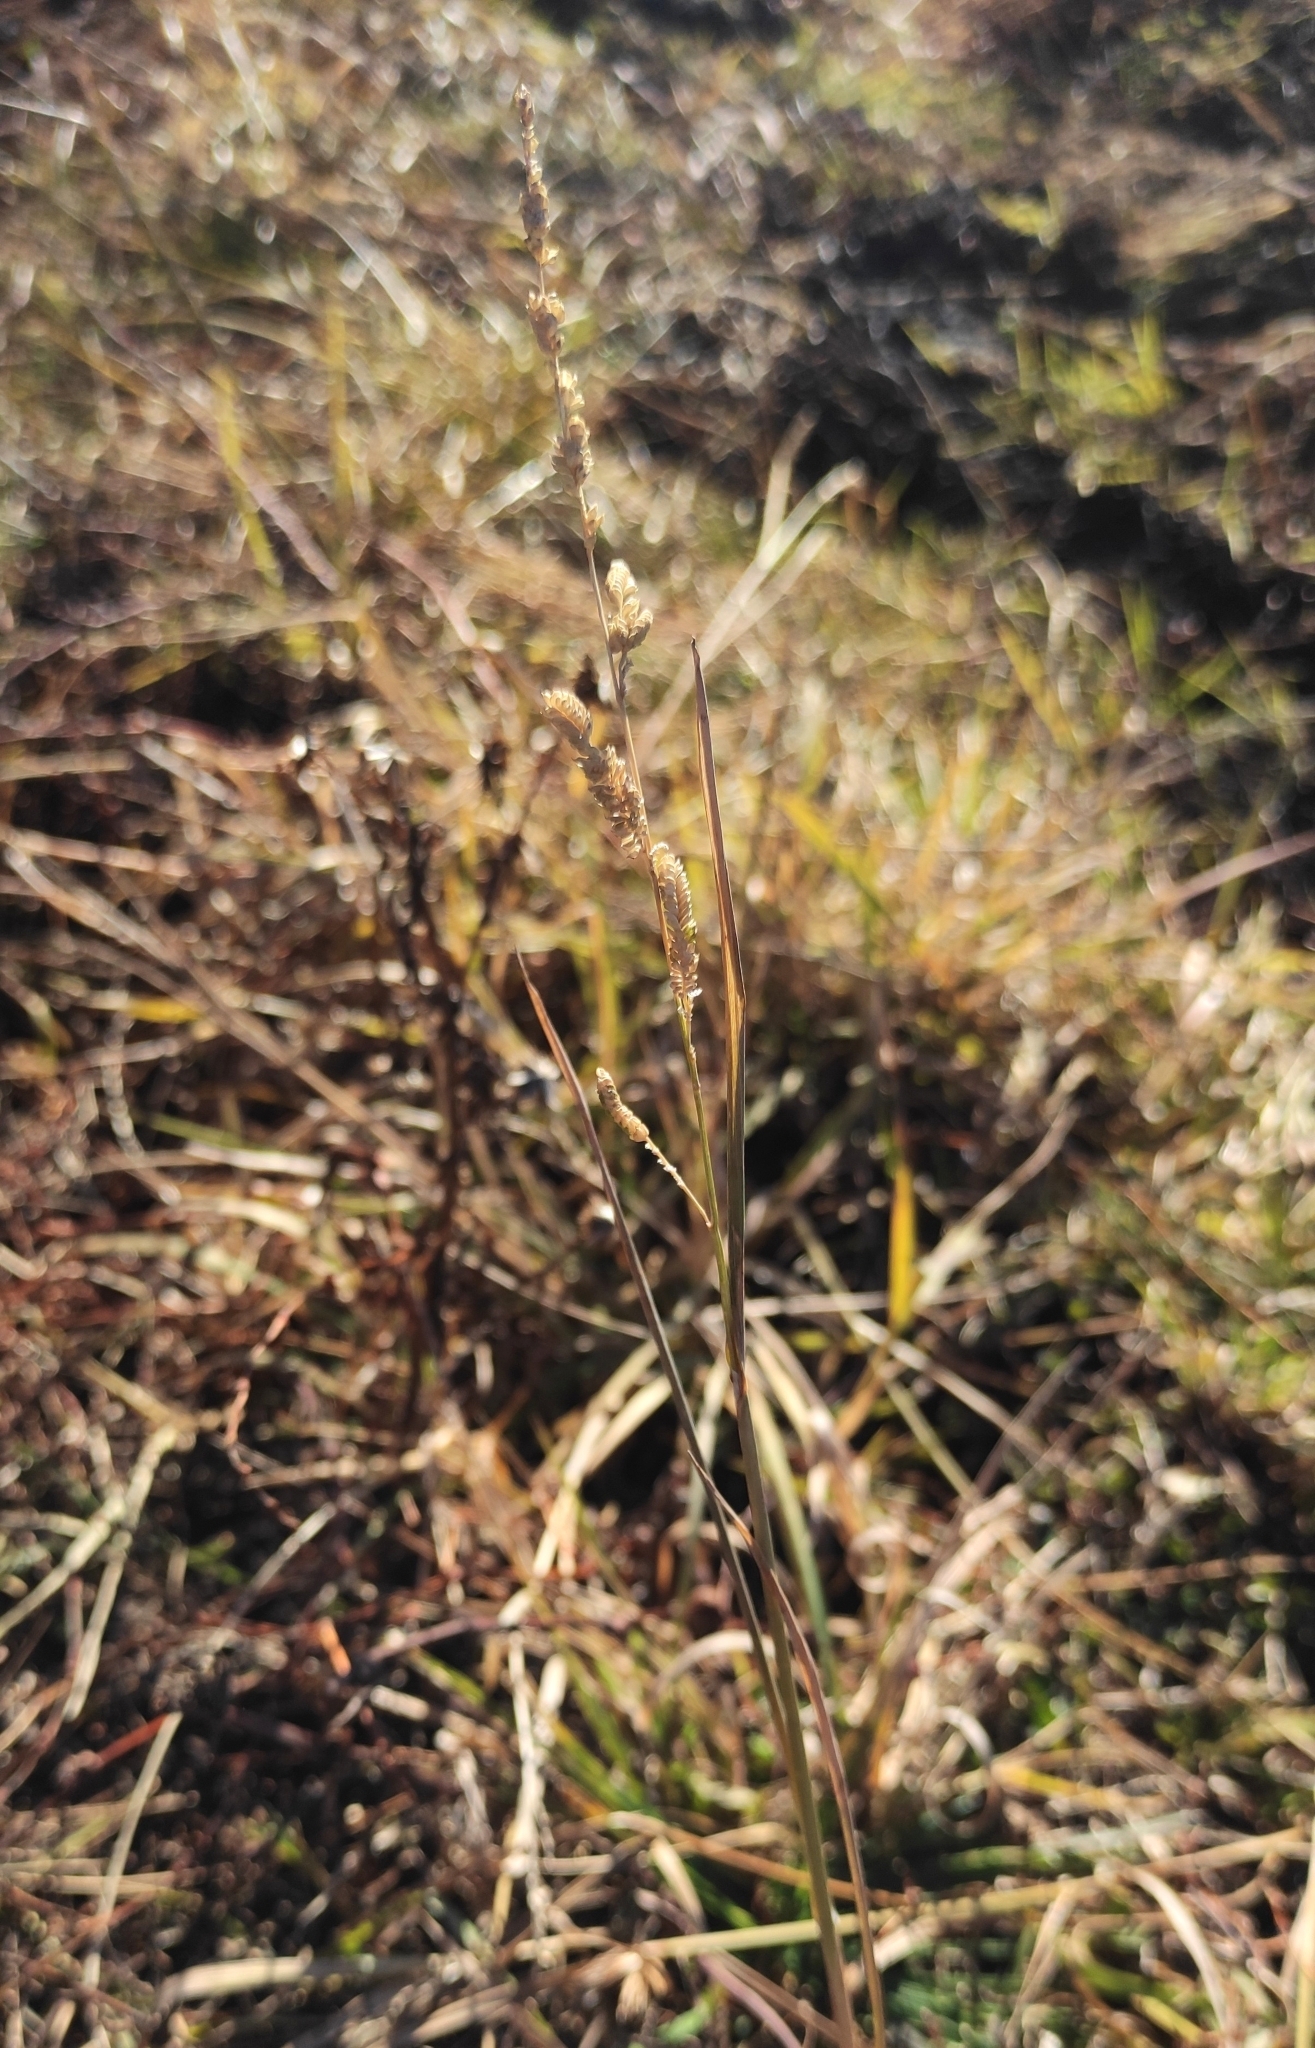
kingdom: Plantae
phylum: Tracheophyta
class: Liliopsida
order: Poales
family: Poaceae
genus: Beckmannia
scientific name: Beckmannia syzigachne
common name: American slough-grass
